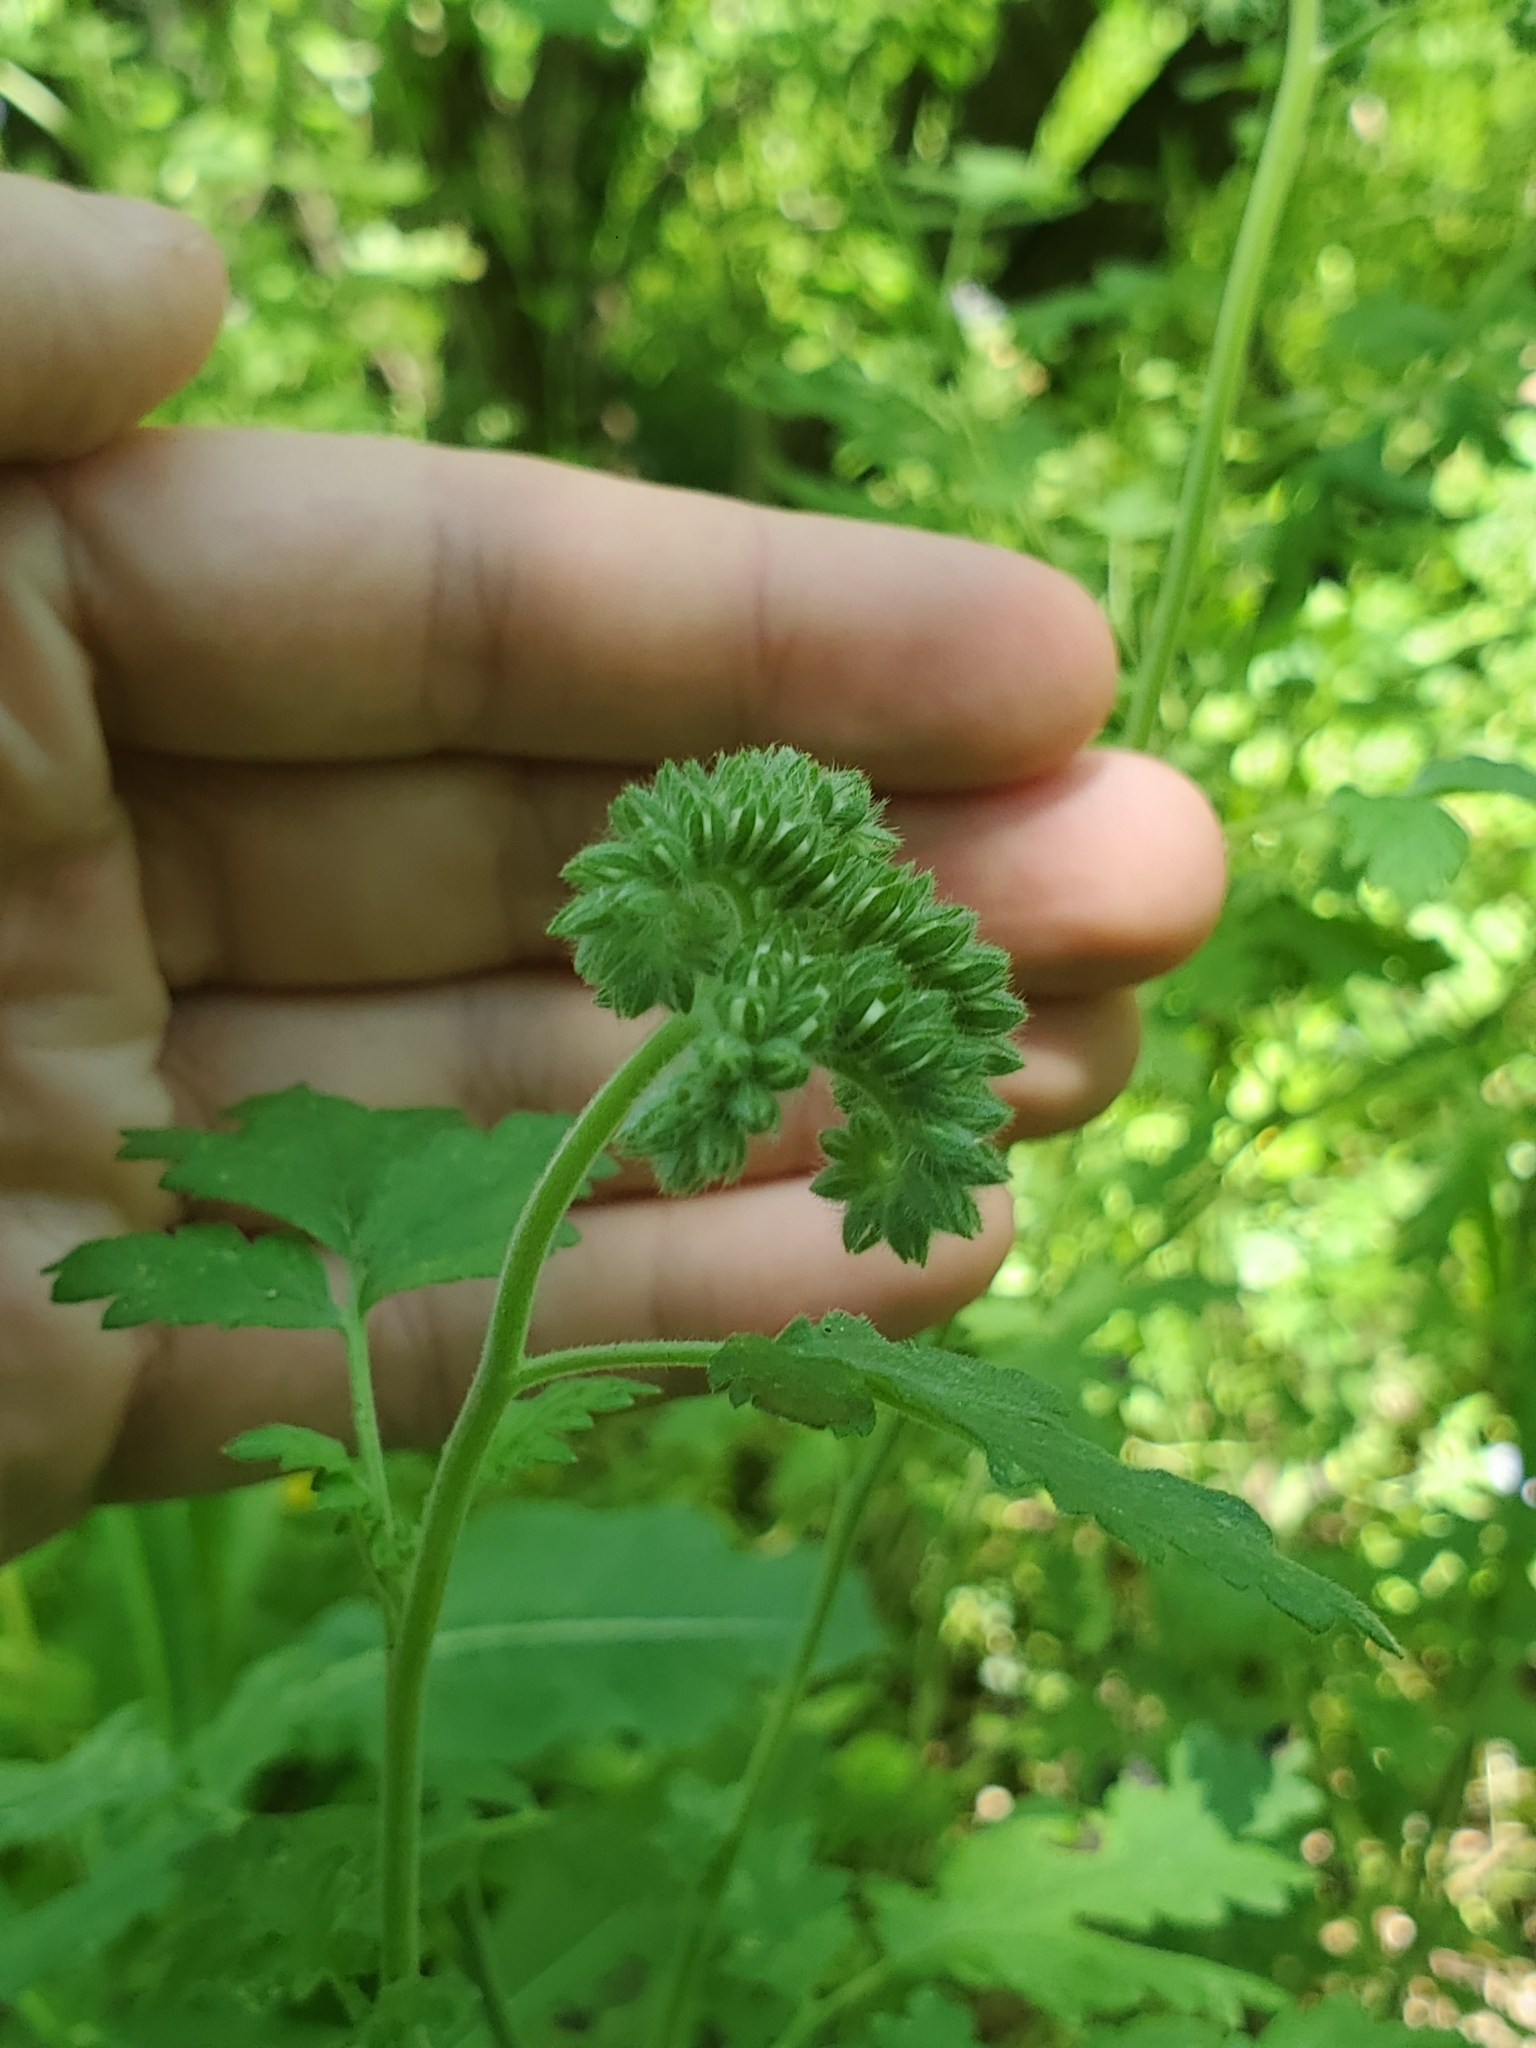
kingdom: Plantae
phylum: Tracheophyta
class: Magnoliopsida
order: Boraginales
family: Hydrophyllaceae
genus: Phacelia
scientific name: Phacelia congesta
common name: Blue curls
